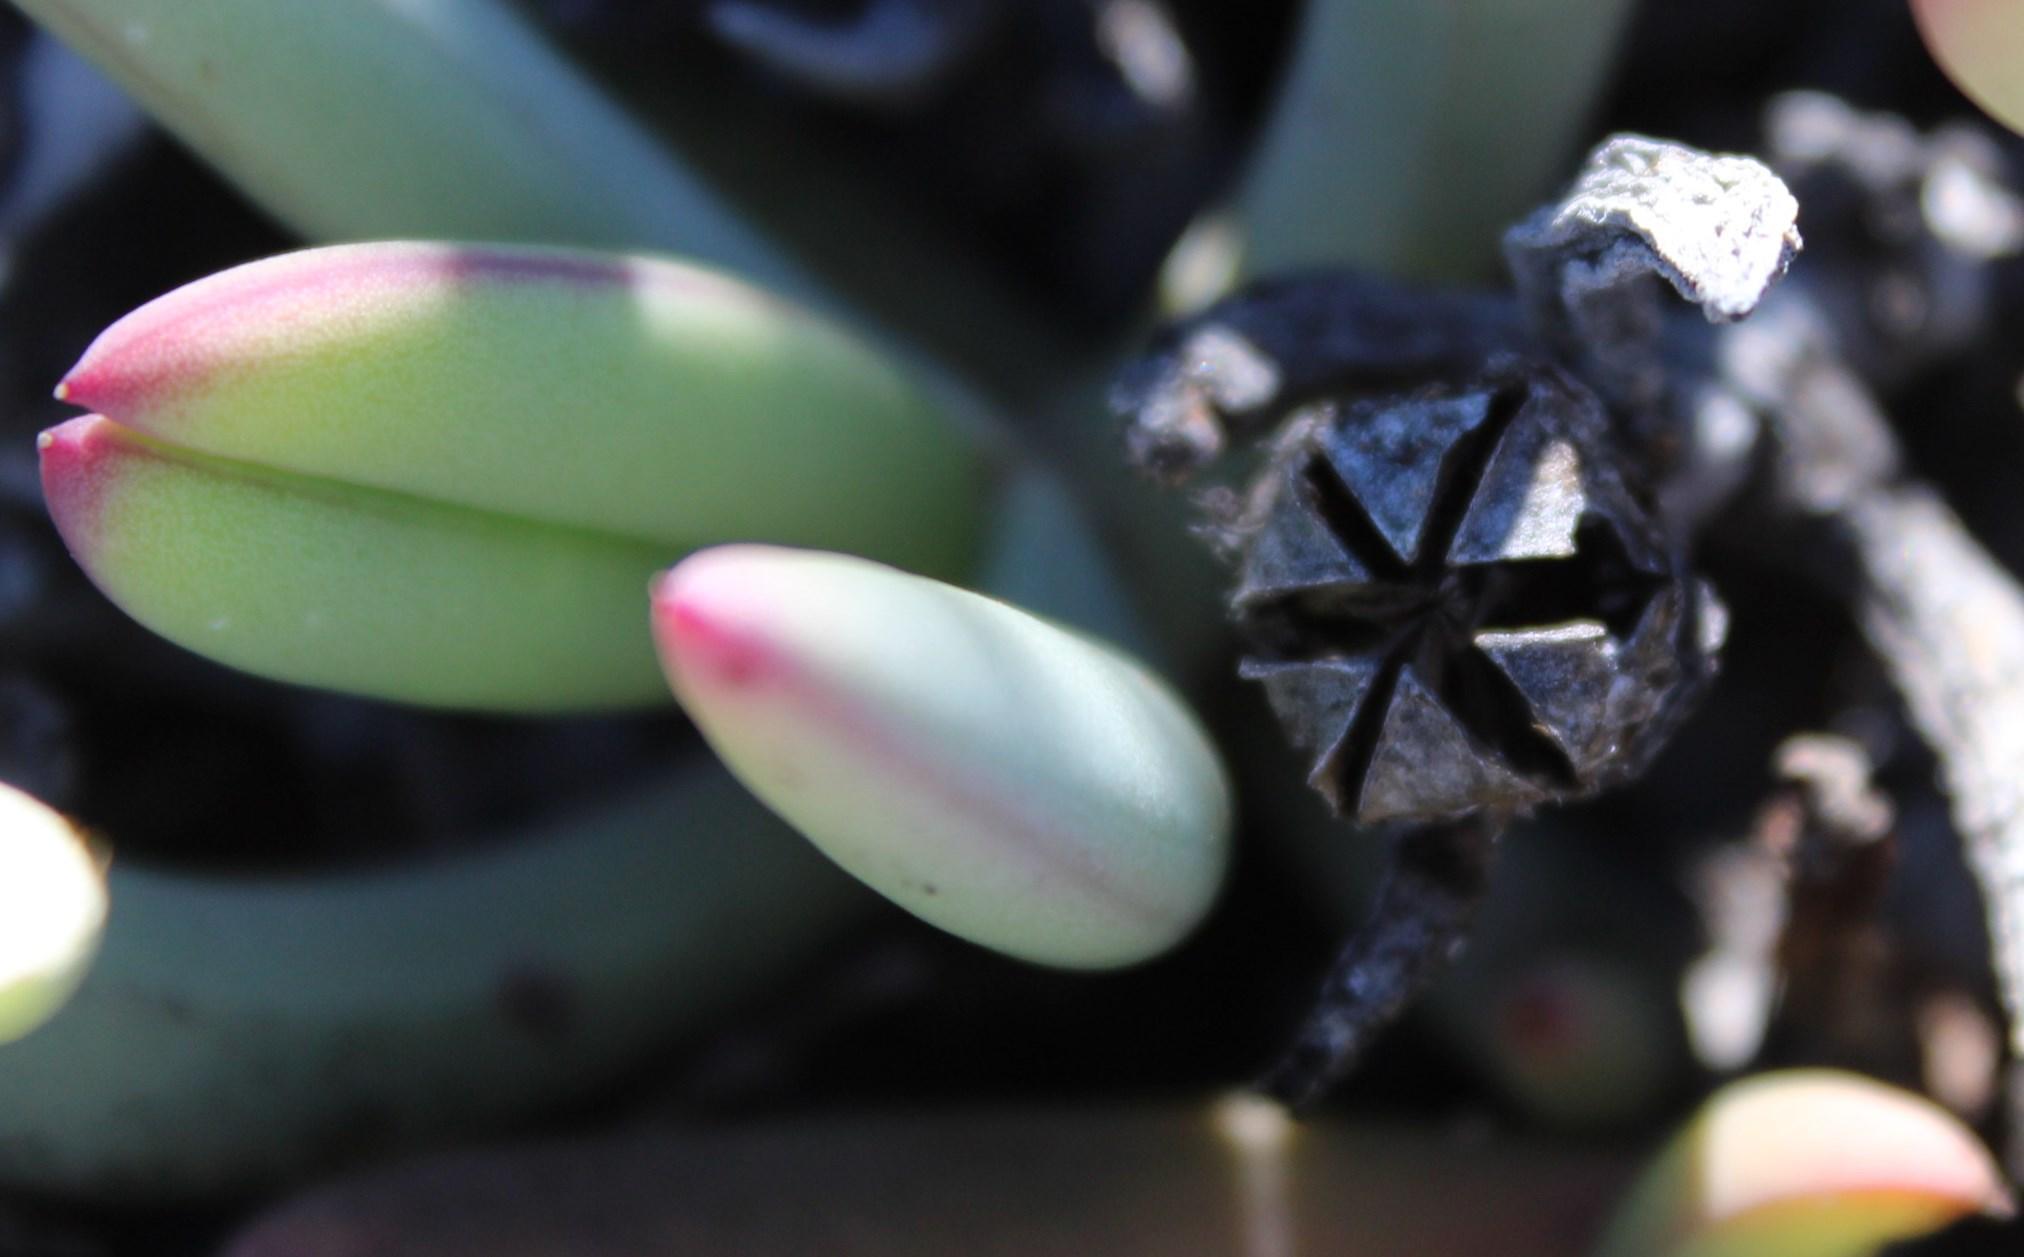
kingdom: Plantae
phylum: Tracheophyta
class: Magnoliopsida
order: Caryophyllales
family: Aizoaceae
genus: Astridia
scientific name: Astridia longifolia
